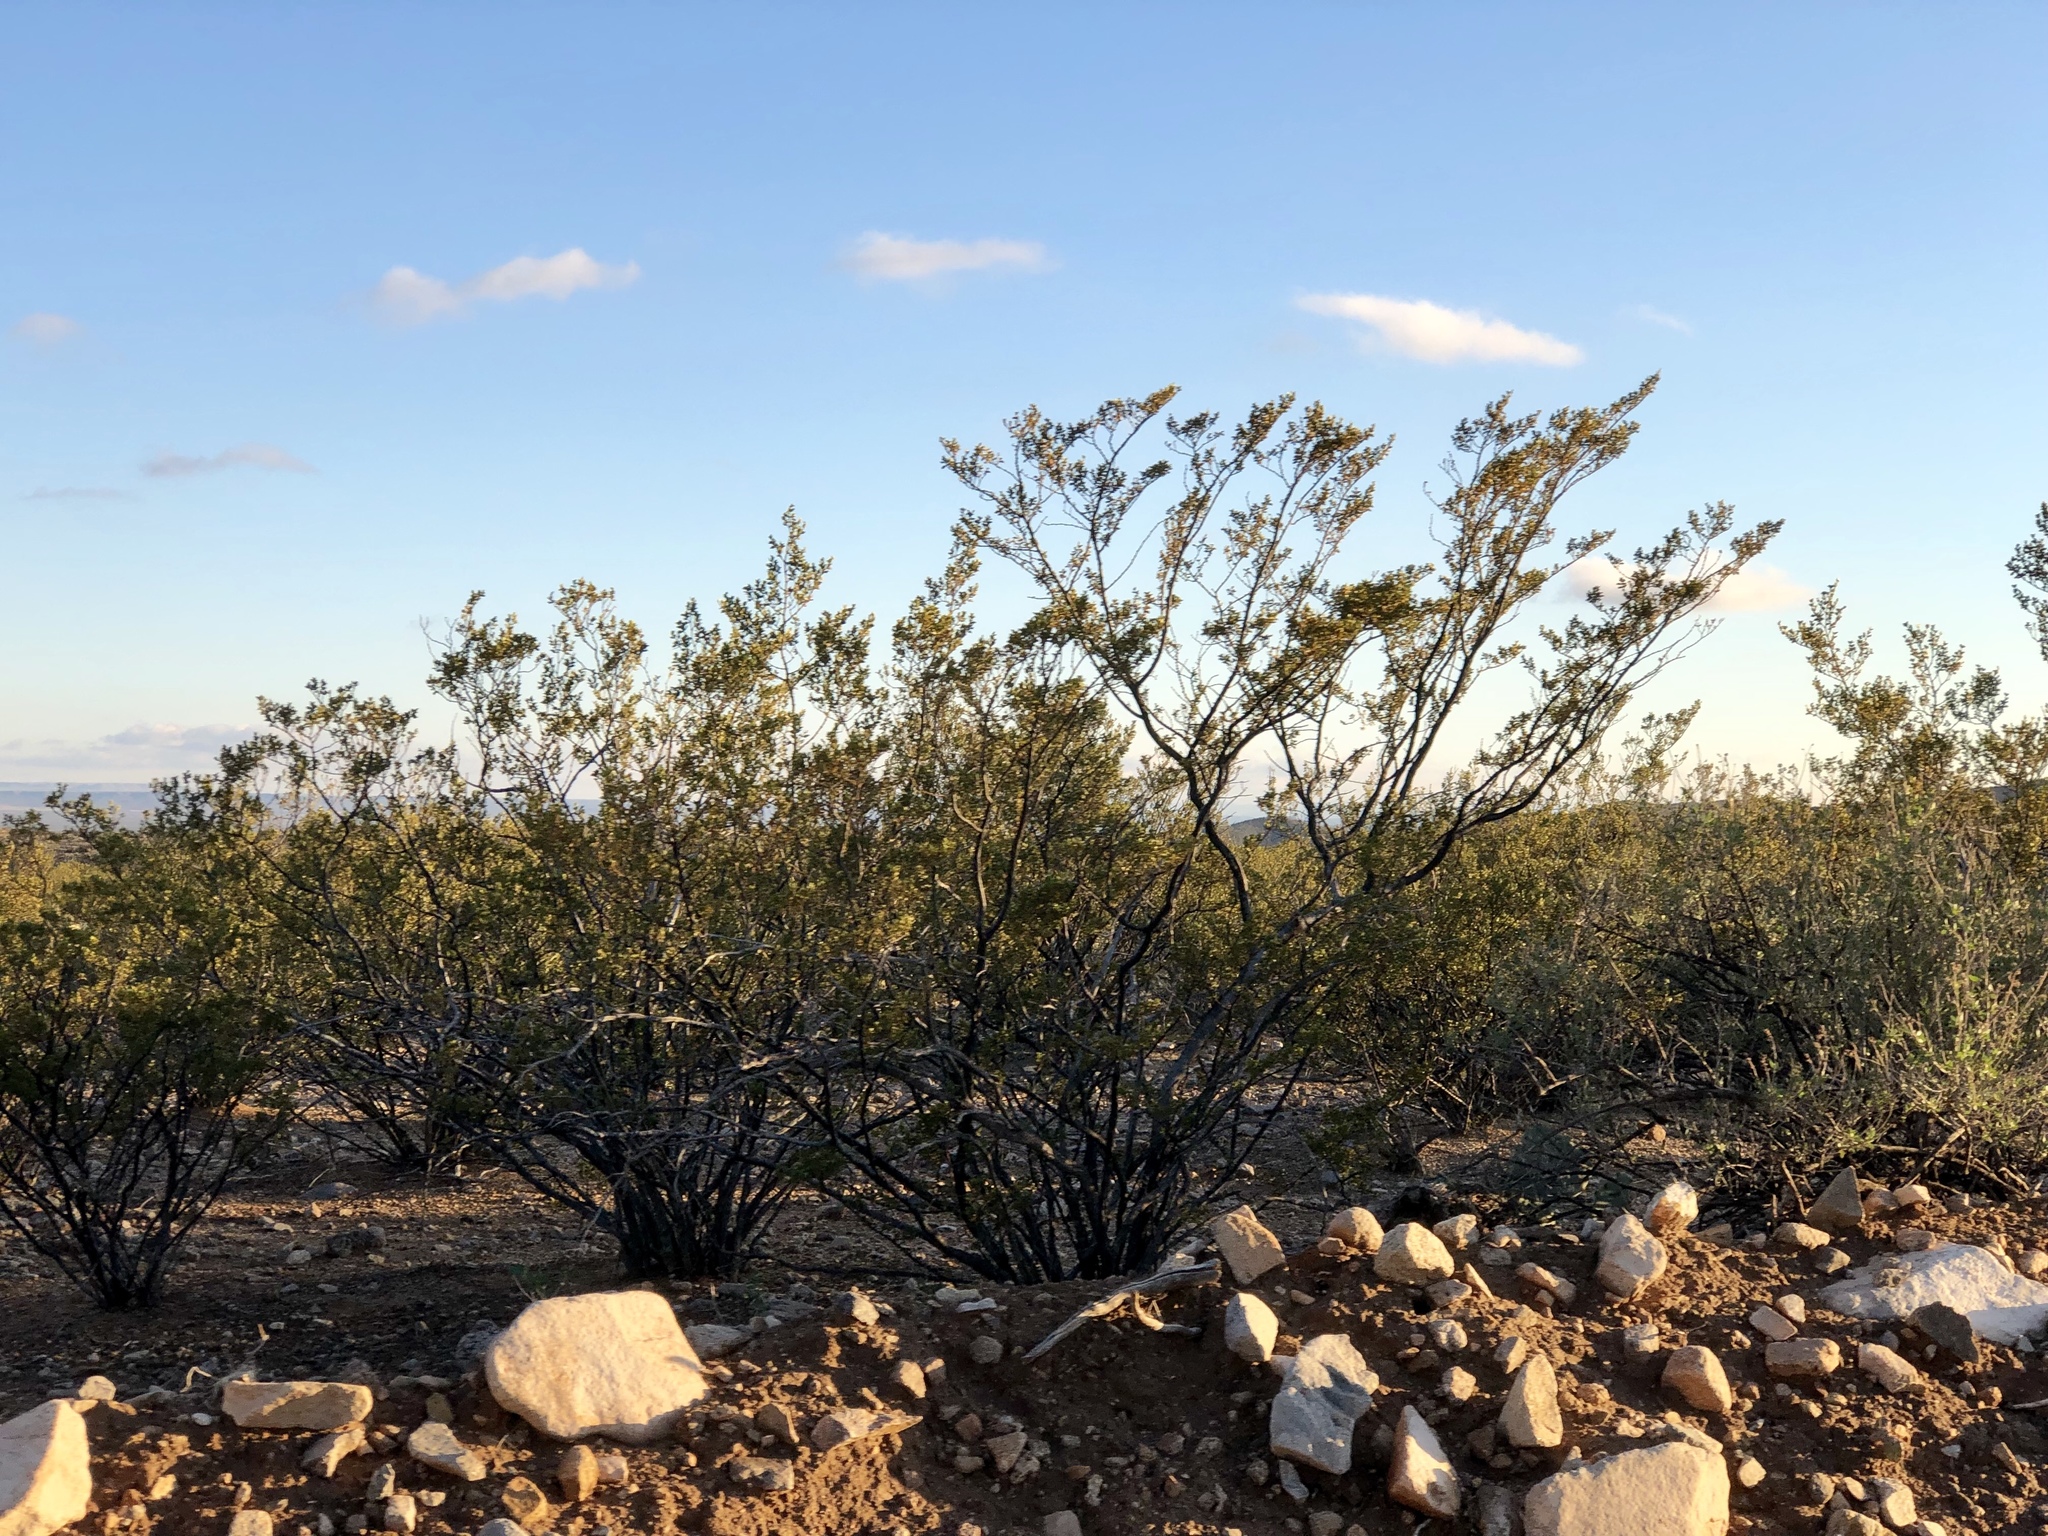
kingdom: Plantae
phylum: Tracheophyta
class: Magnoliopsida
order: Zygophyllales
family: Zygophyllaceae
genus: Larrea
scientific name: Larrea tridentata
